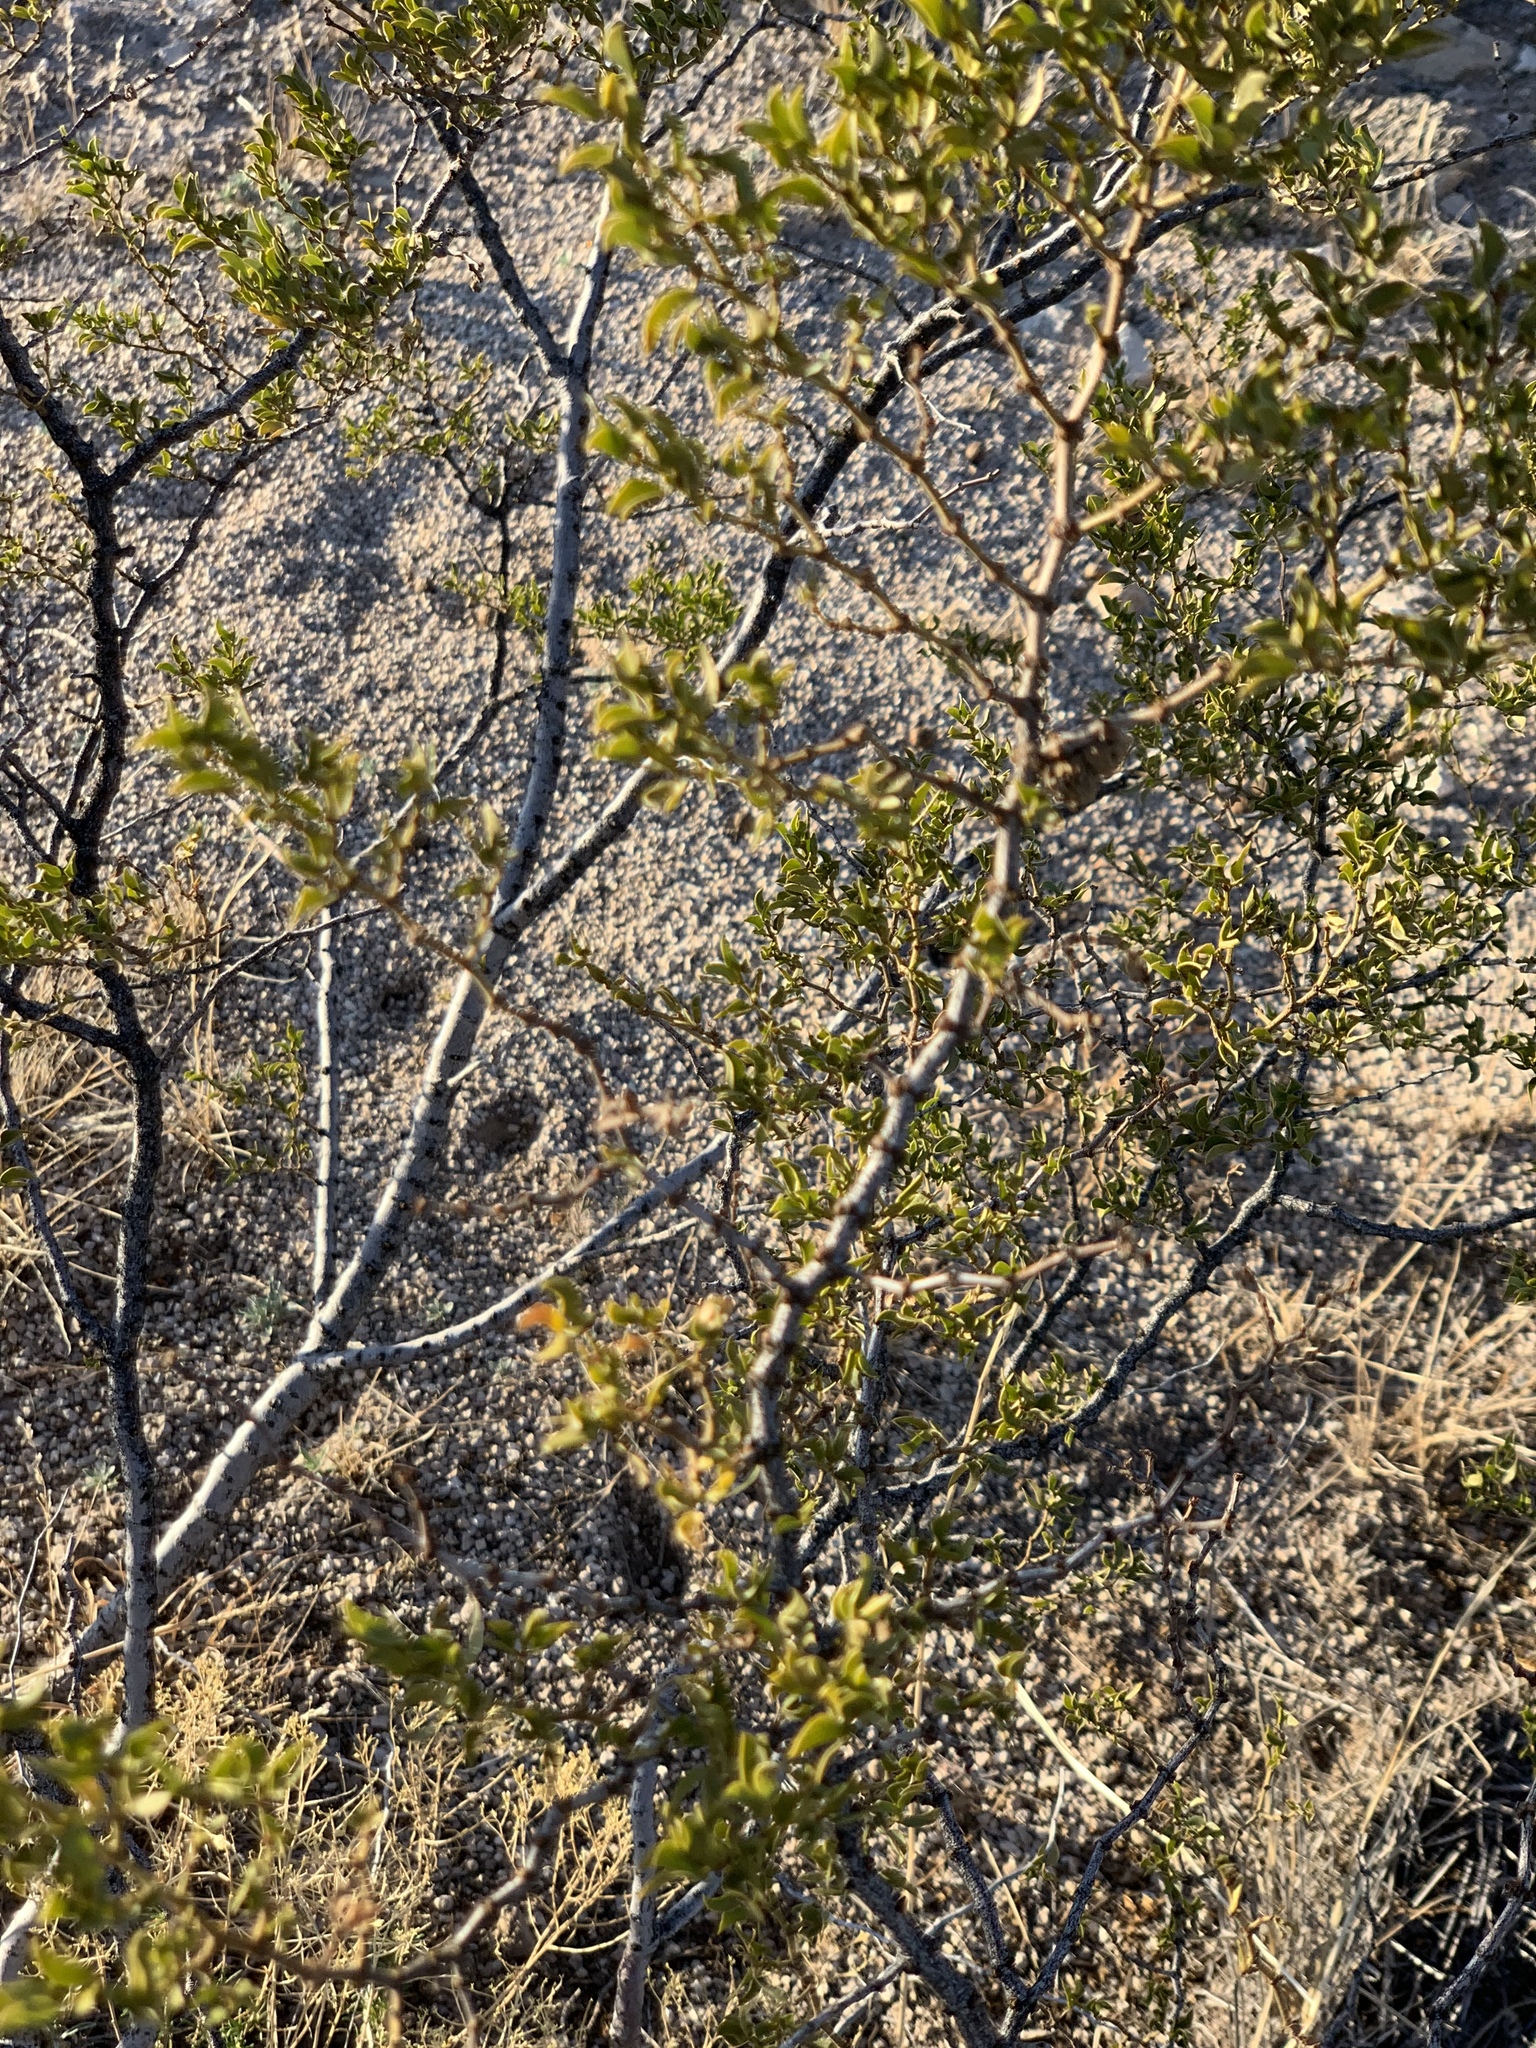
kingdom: Plantae
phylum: Tracheophyta
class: Magnoliopsida
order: Zygophyllales
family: Zygophyllaceae
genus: Larrea
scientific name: Larrea tridentata
